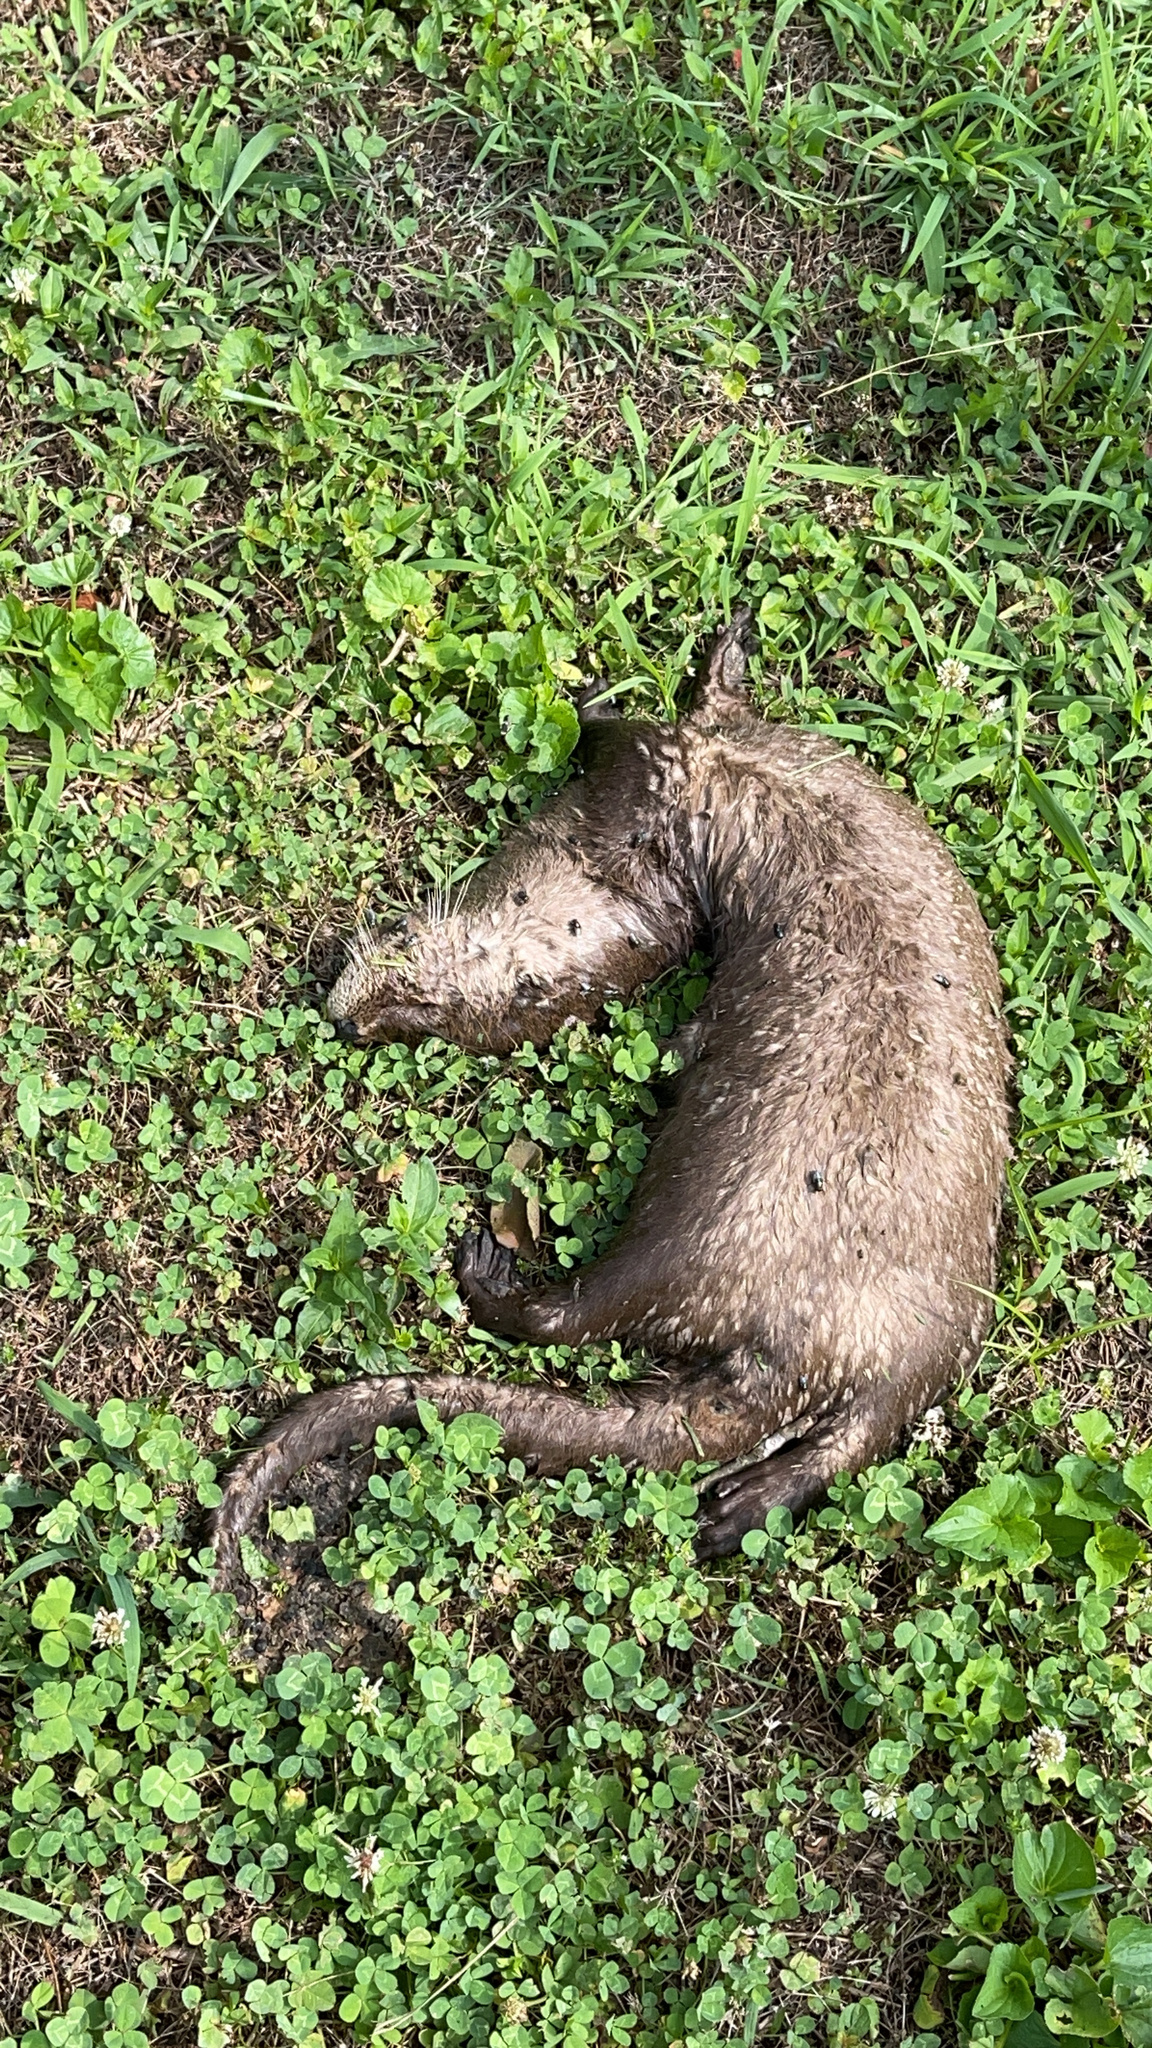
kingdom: Animalia
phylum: Chordata
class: Mammalia
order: Carnivora
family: Mustelidae
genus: Lontra
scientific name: Lontra canadensis
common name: North american river otter
